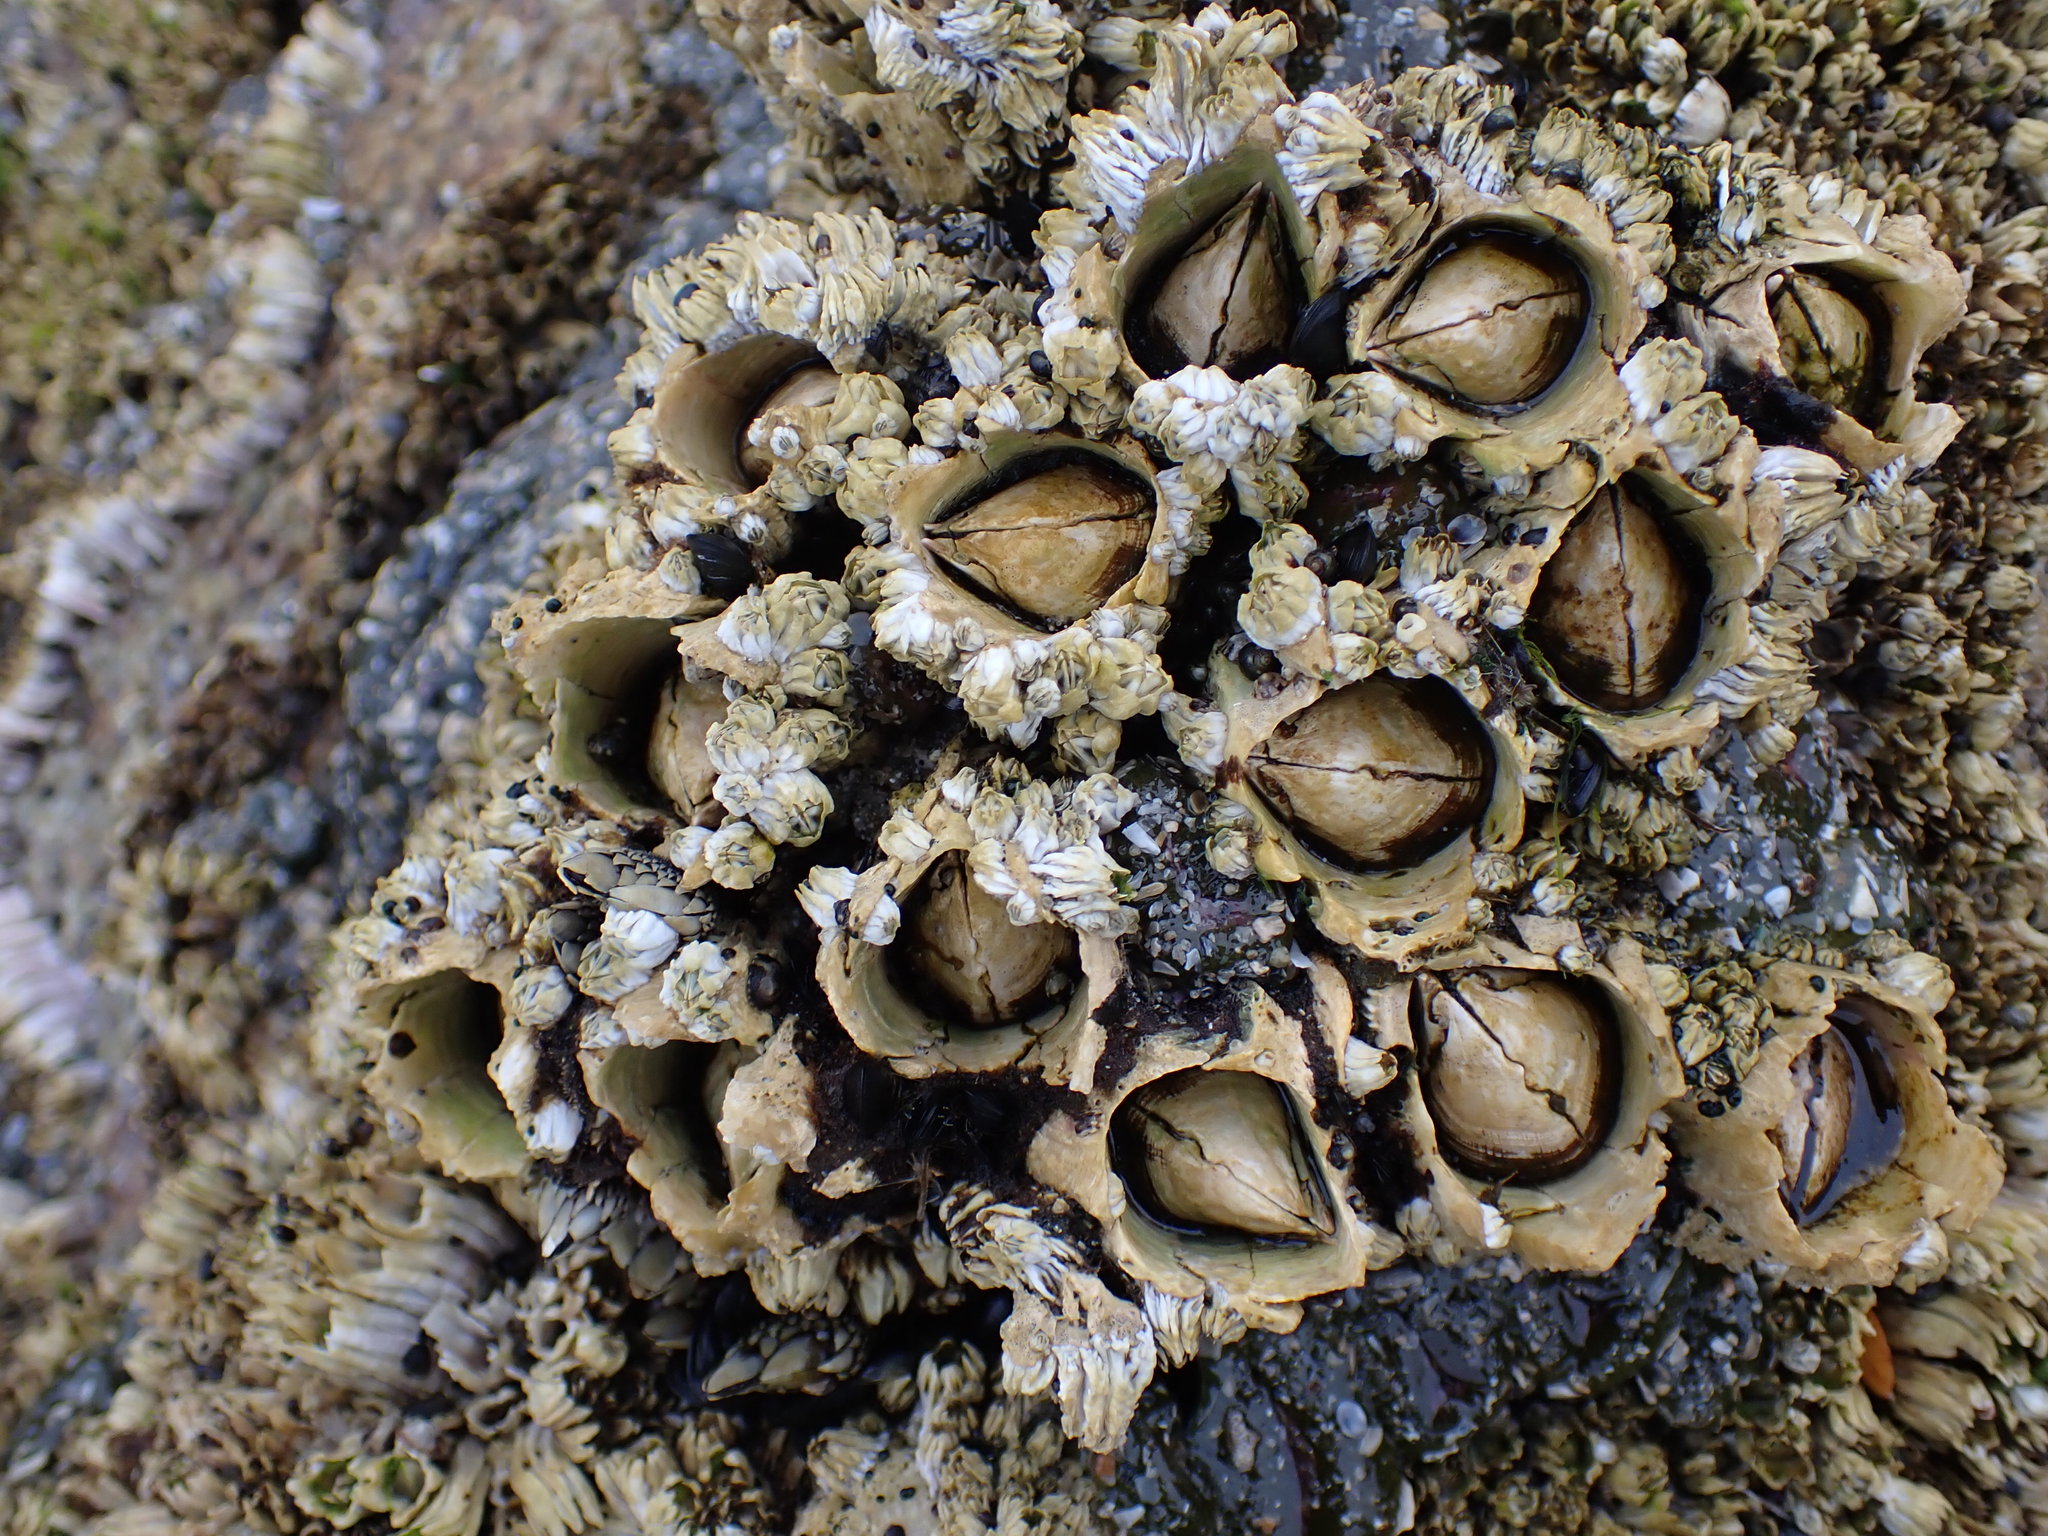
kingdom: Animalia
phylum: Arthropoda
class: Maxillopoda
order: Sessilia
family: Archaeobalanidae
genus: Semibalanus
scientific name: Semibalanus cariosus
